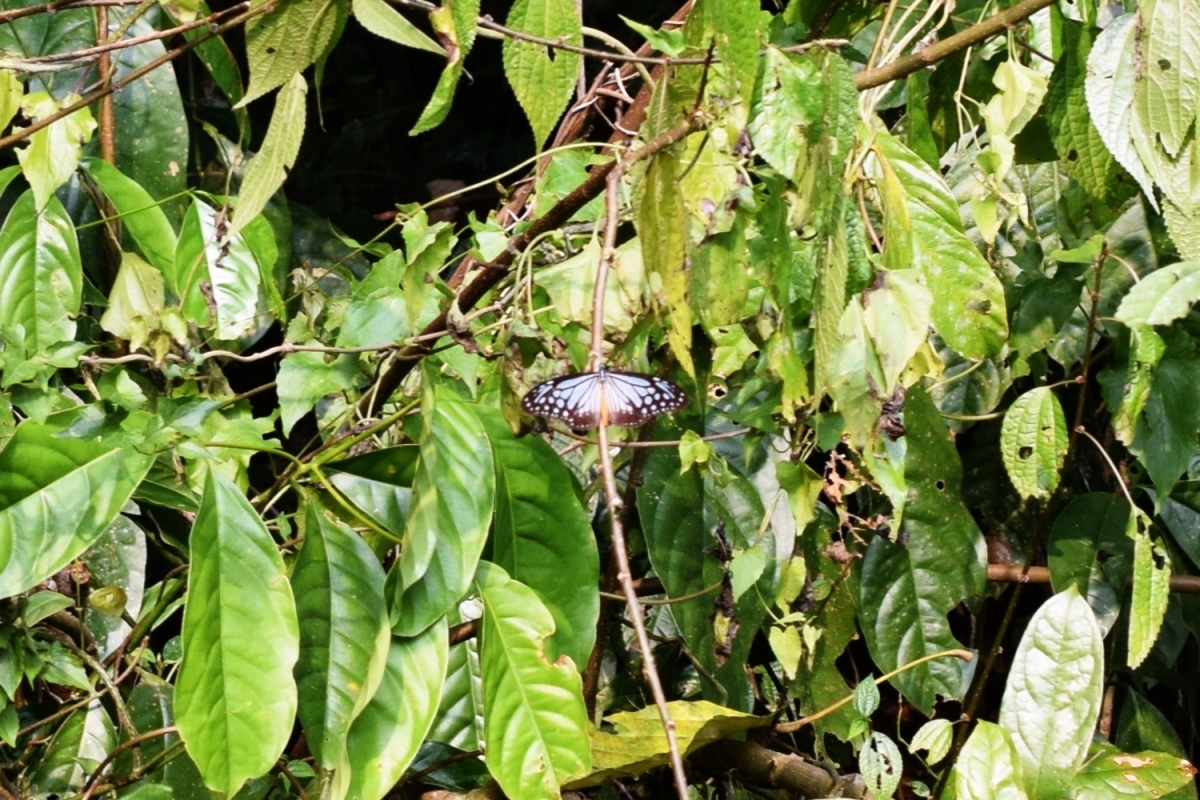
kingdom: Animalia
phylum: Arthropoda
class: Insecta
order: Lepidoptera
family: Nymphalidae
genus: Parantica
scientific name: Parantica melaneus
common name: Chocolate tiger
